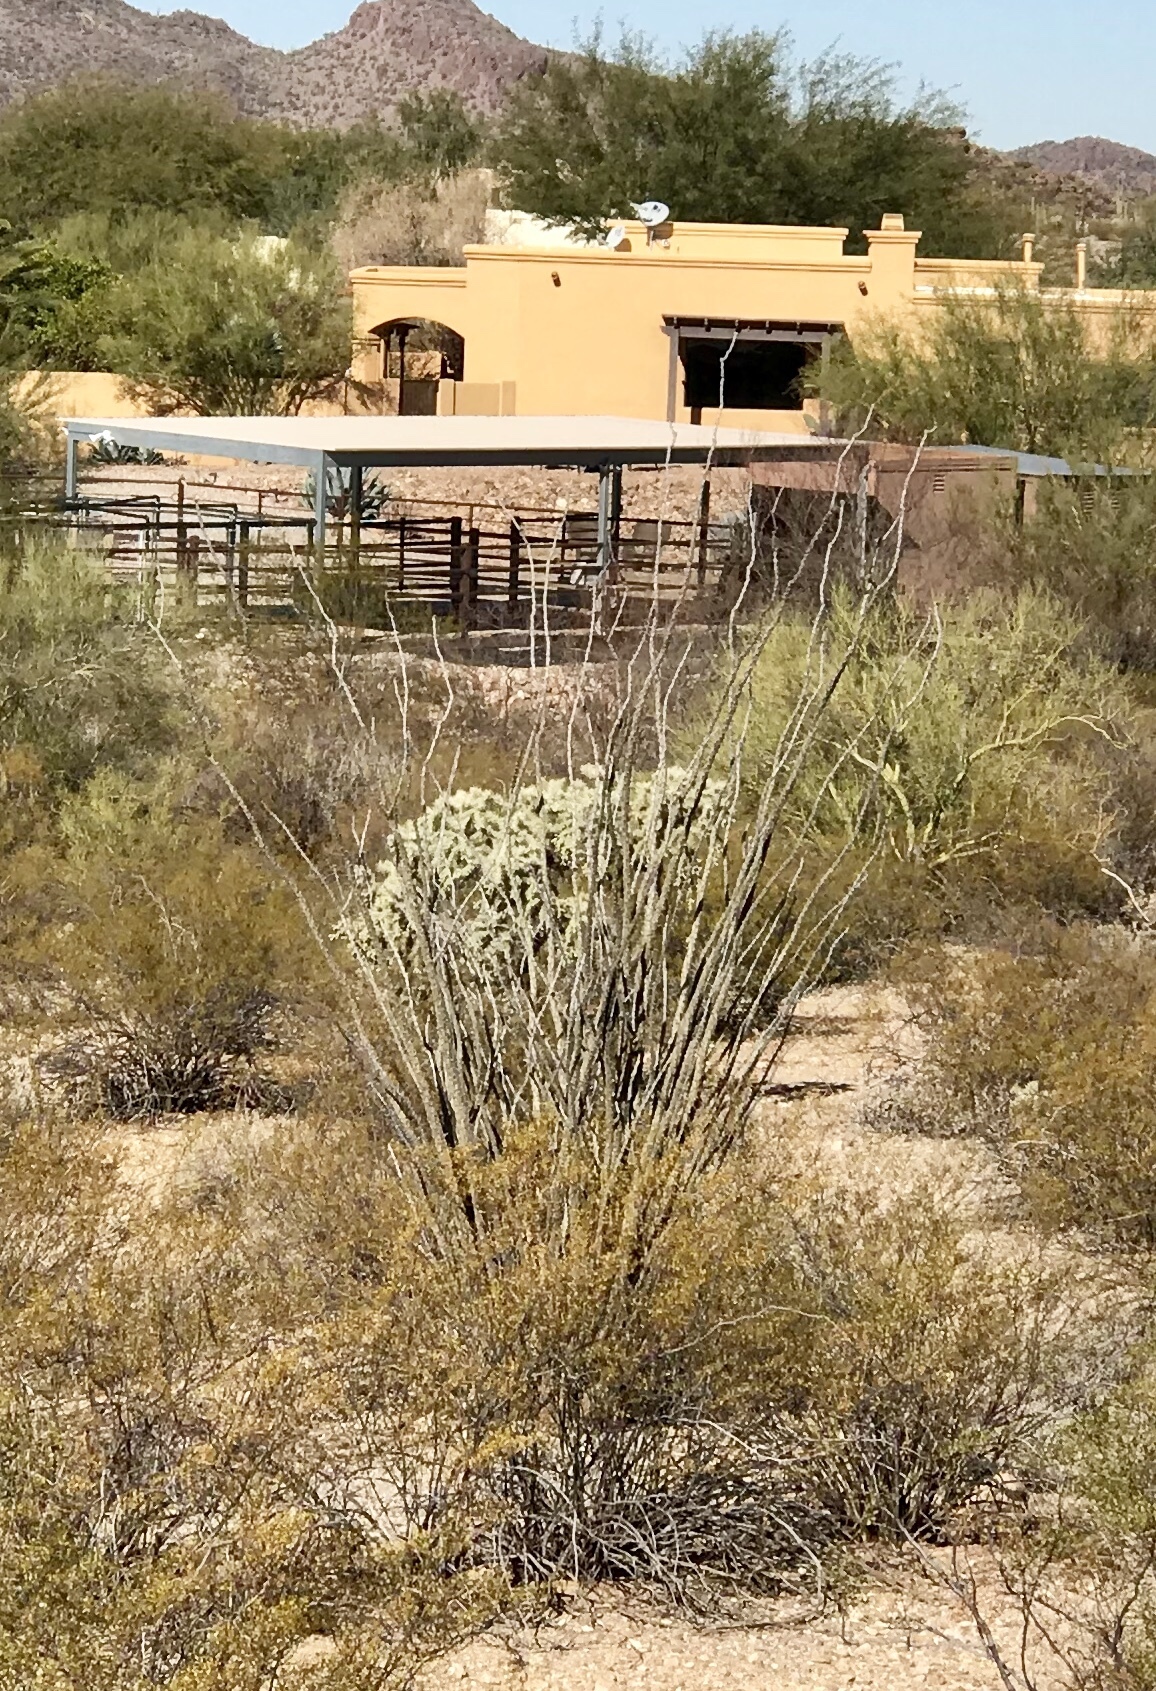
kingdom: Plantae
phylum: Tracheophyta
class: Magnoliopsida
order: Ericales
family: Fouquieriaceae
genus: Fouquieria
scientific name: Fouquieria splendens
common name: Vine-cactus
